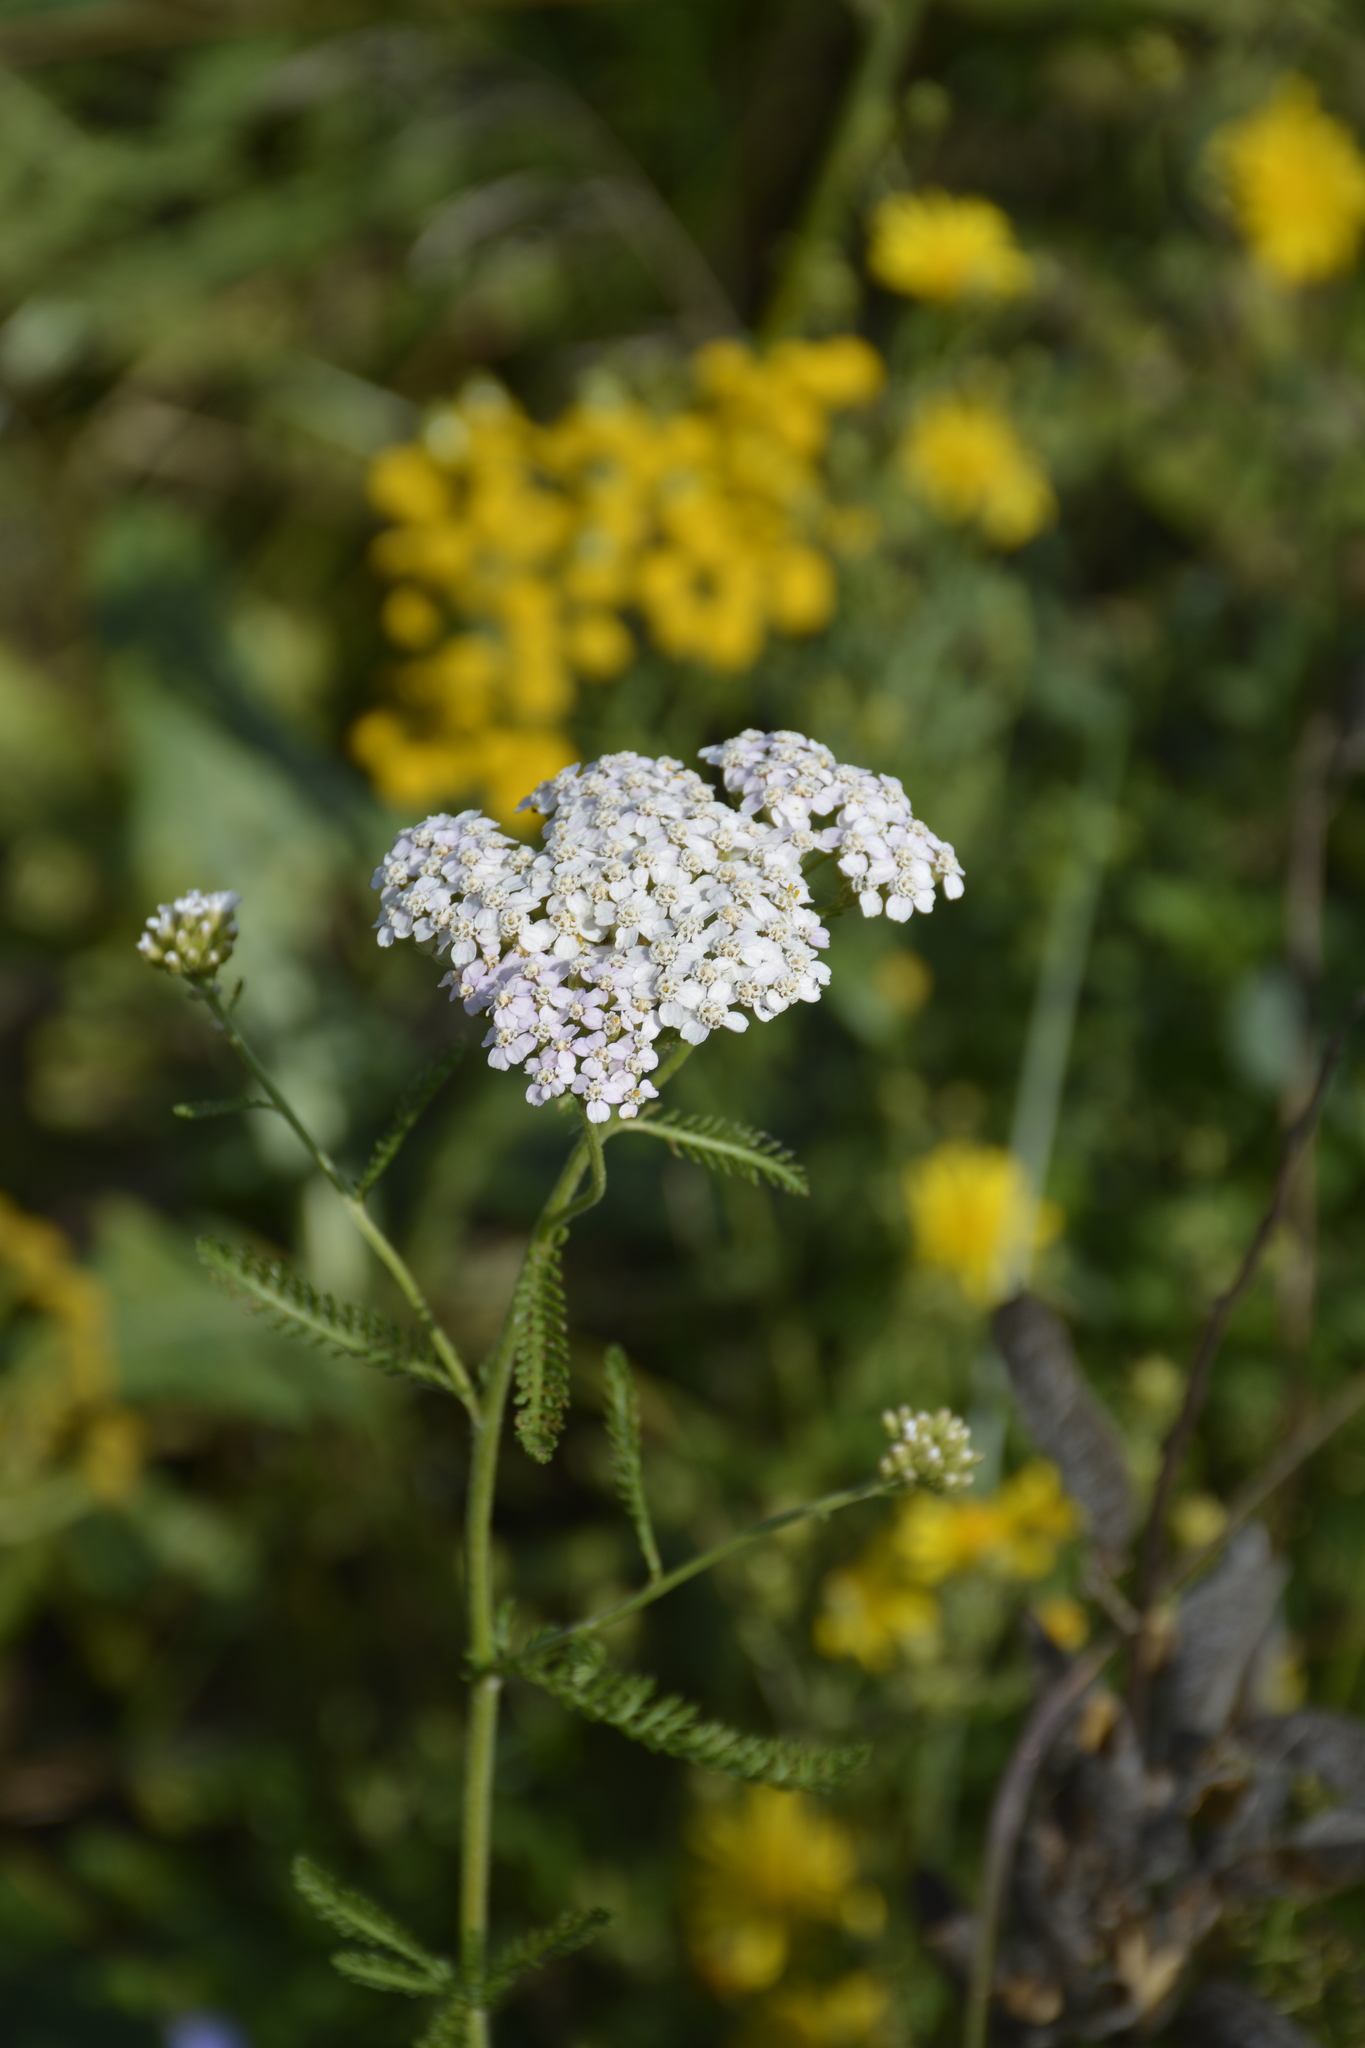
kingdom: Plantae
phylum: Tracheophyta
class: Magnoliopsida
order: Asterales
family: Asteraceae
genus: Achillea
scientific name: Achillea millefolium
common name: Yarrow
